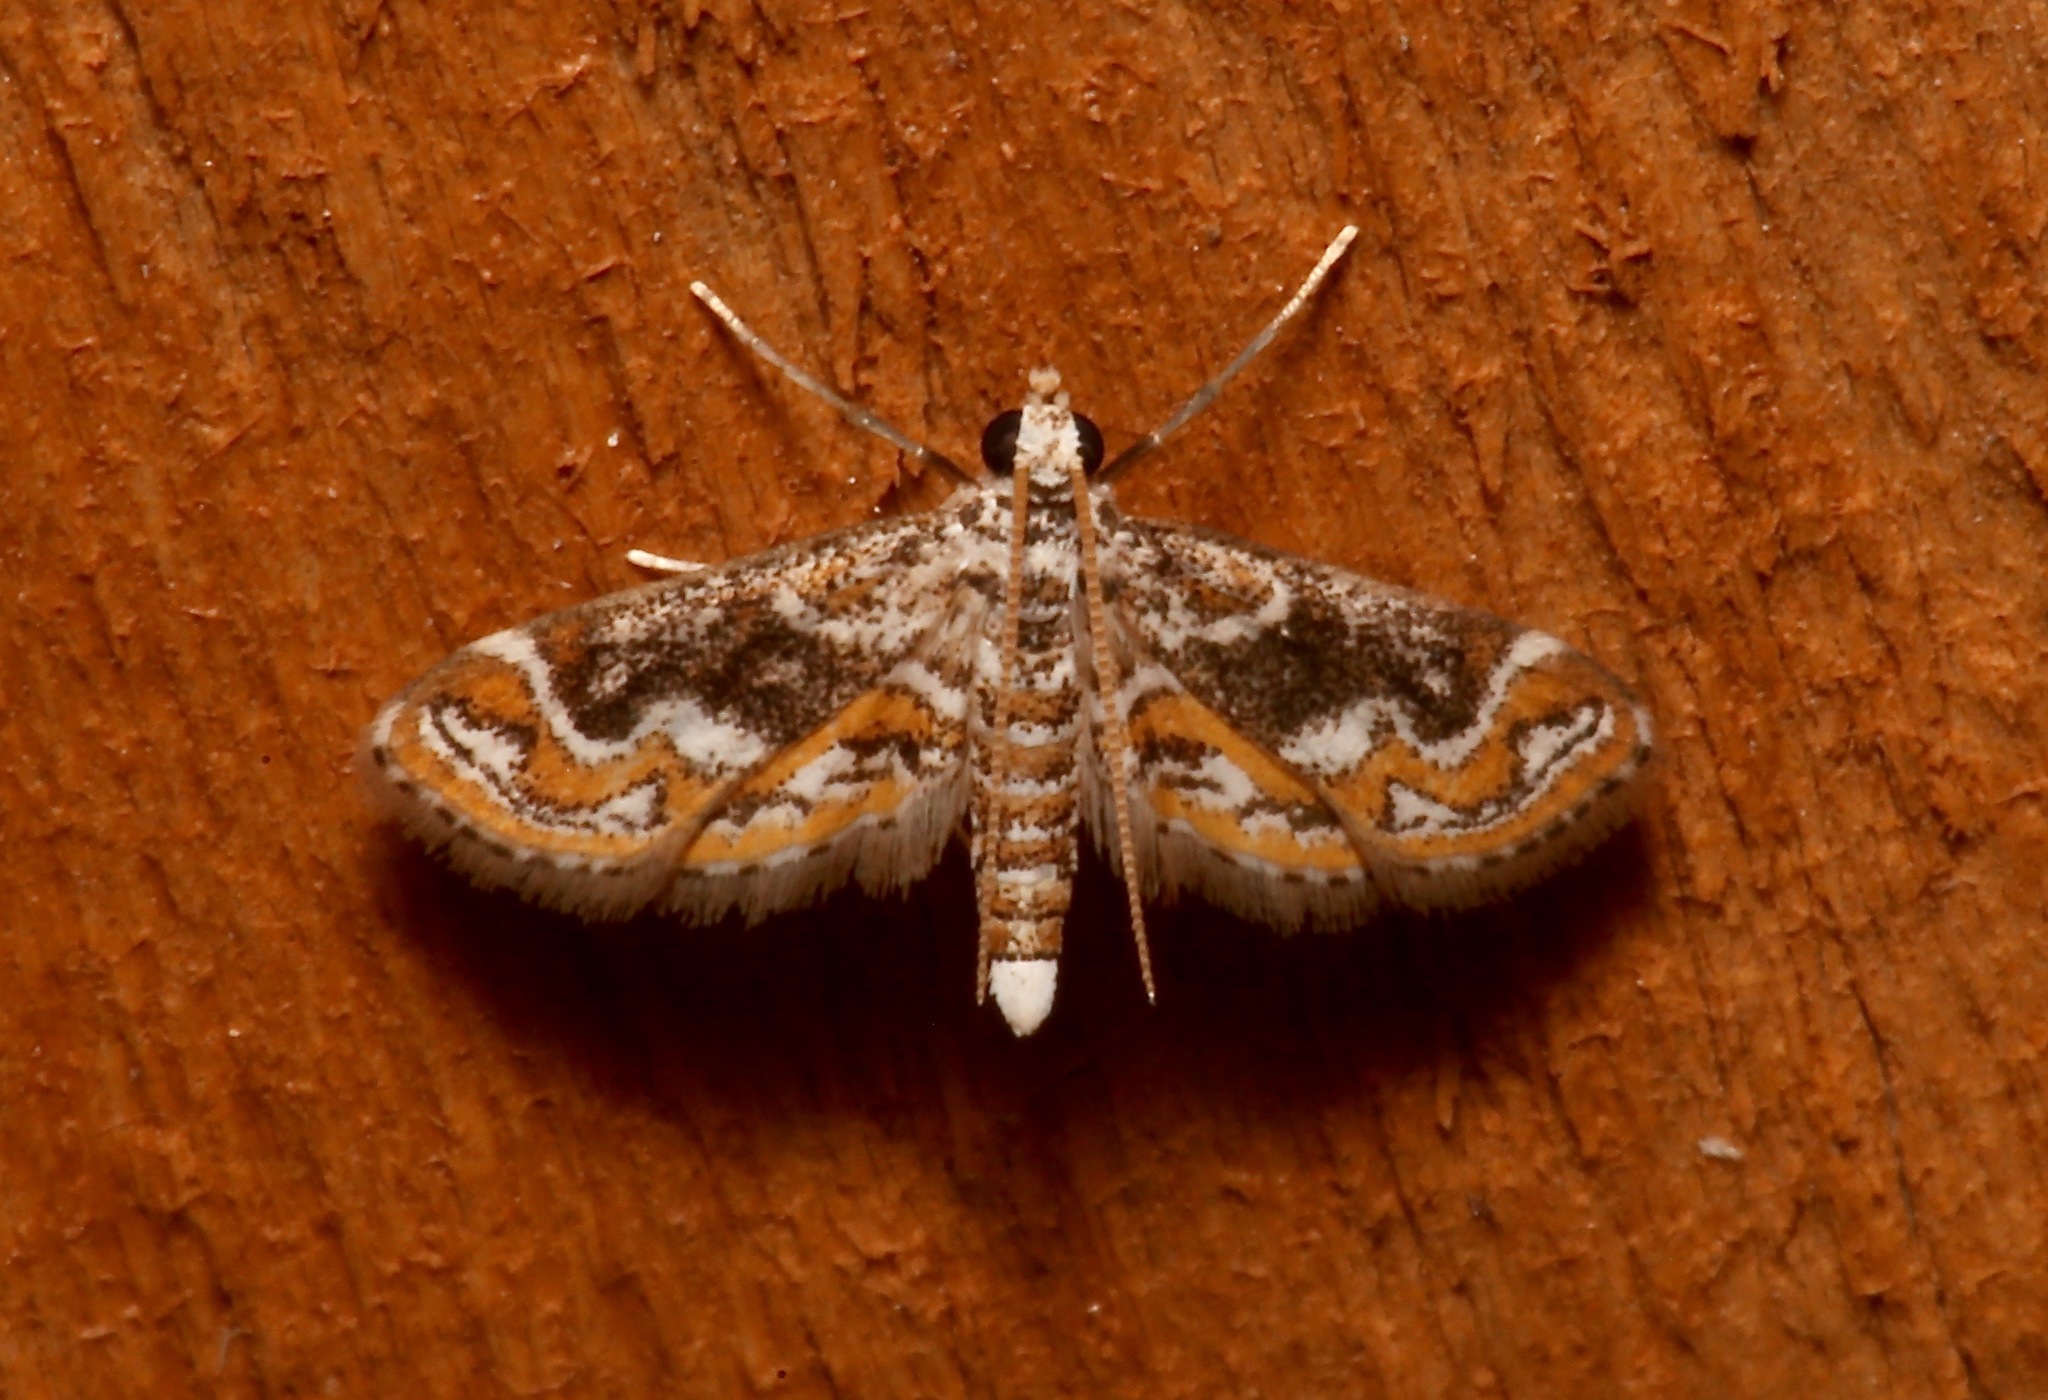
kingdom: Animalia
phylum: Arthropoda
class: Insecta
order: Lepidoptera
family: Crambidae
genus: Parapoynx
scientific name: Parapoynx diminutalis
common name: Hydrilla leafcutter
